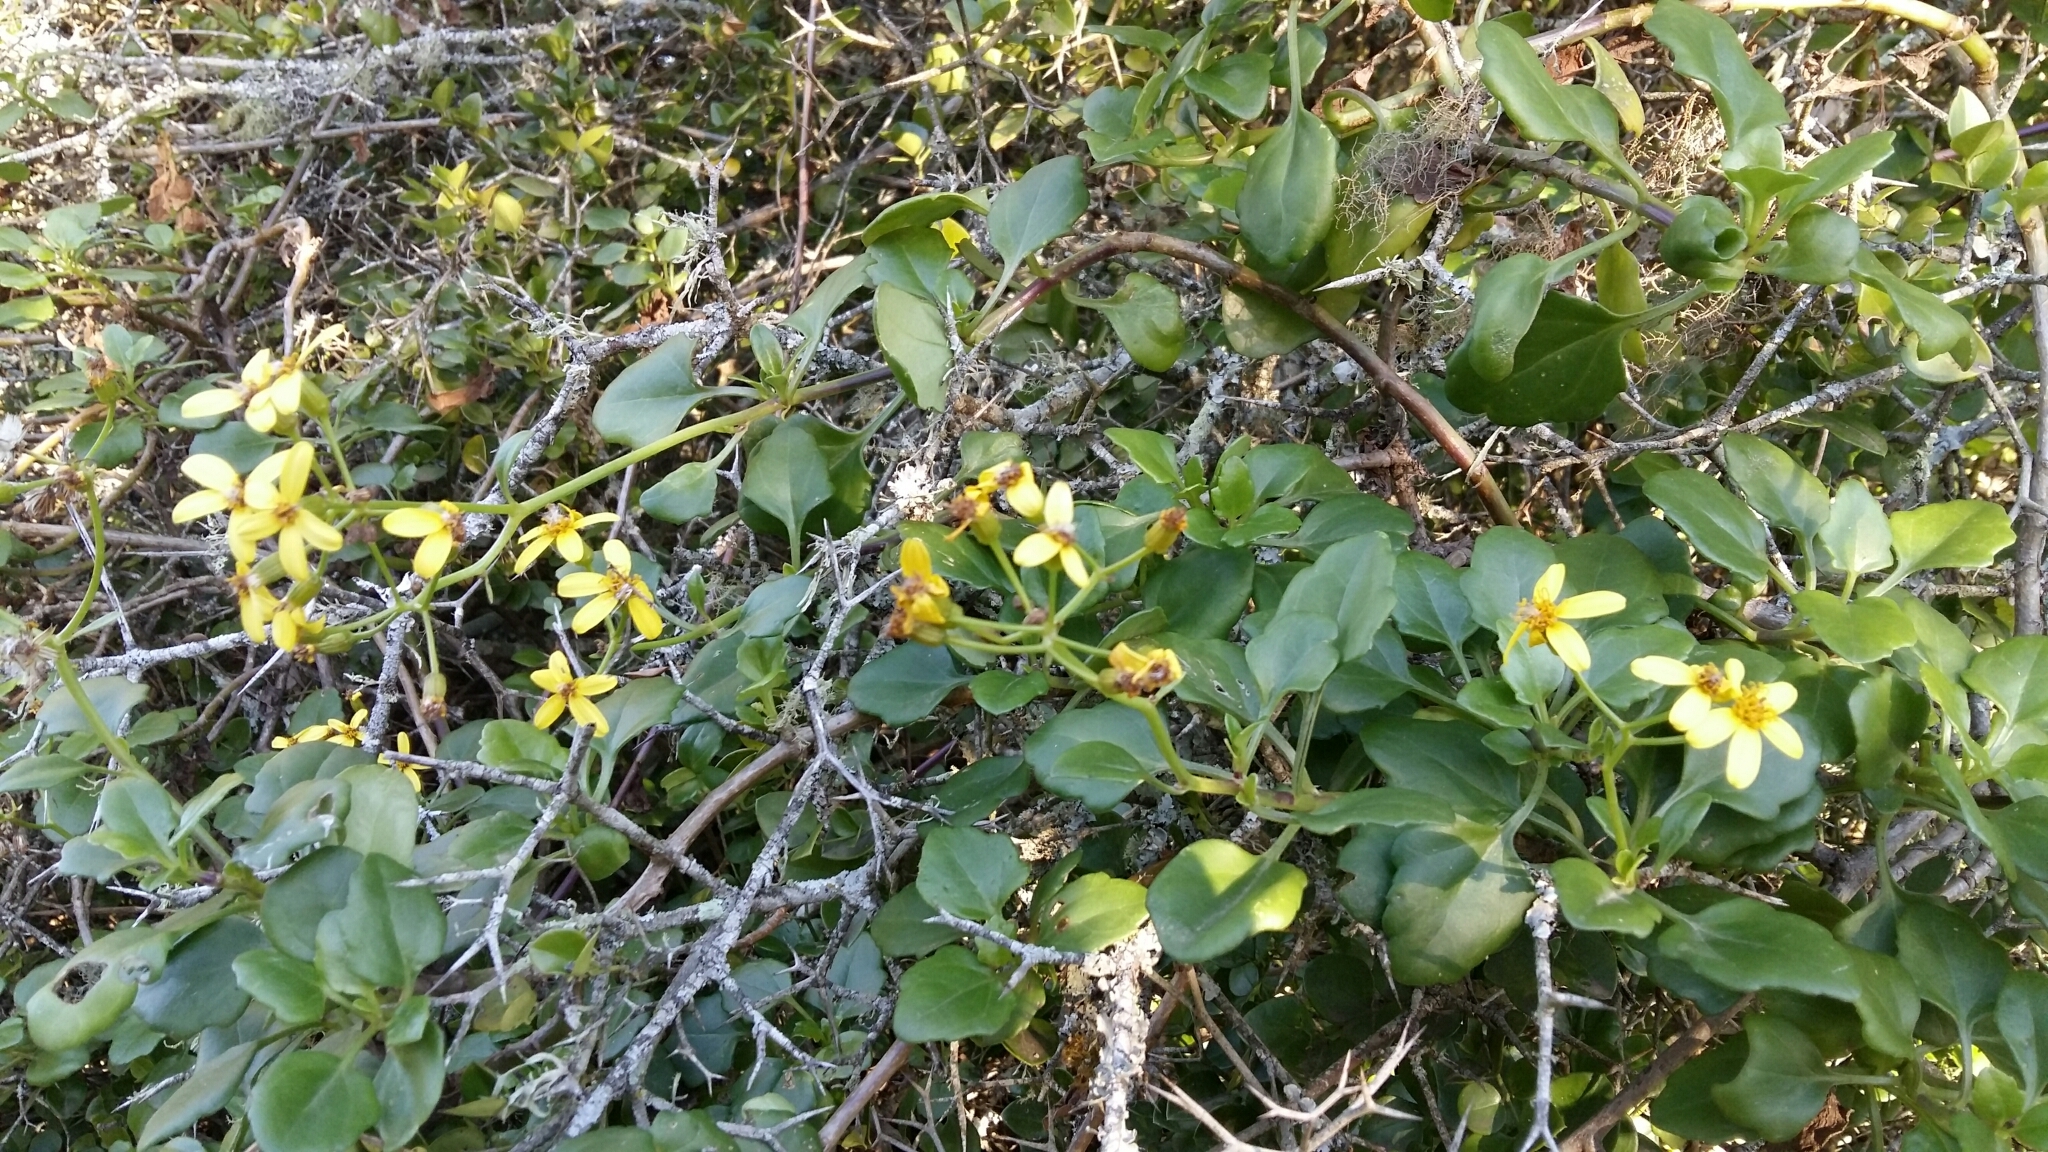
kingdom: Plantae
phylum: Tracheophyta
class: Magnoliopsida
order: Asterales
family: Asteraceae
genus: Senecio
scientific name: Senecio angulatus
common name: Climbing groundsel
